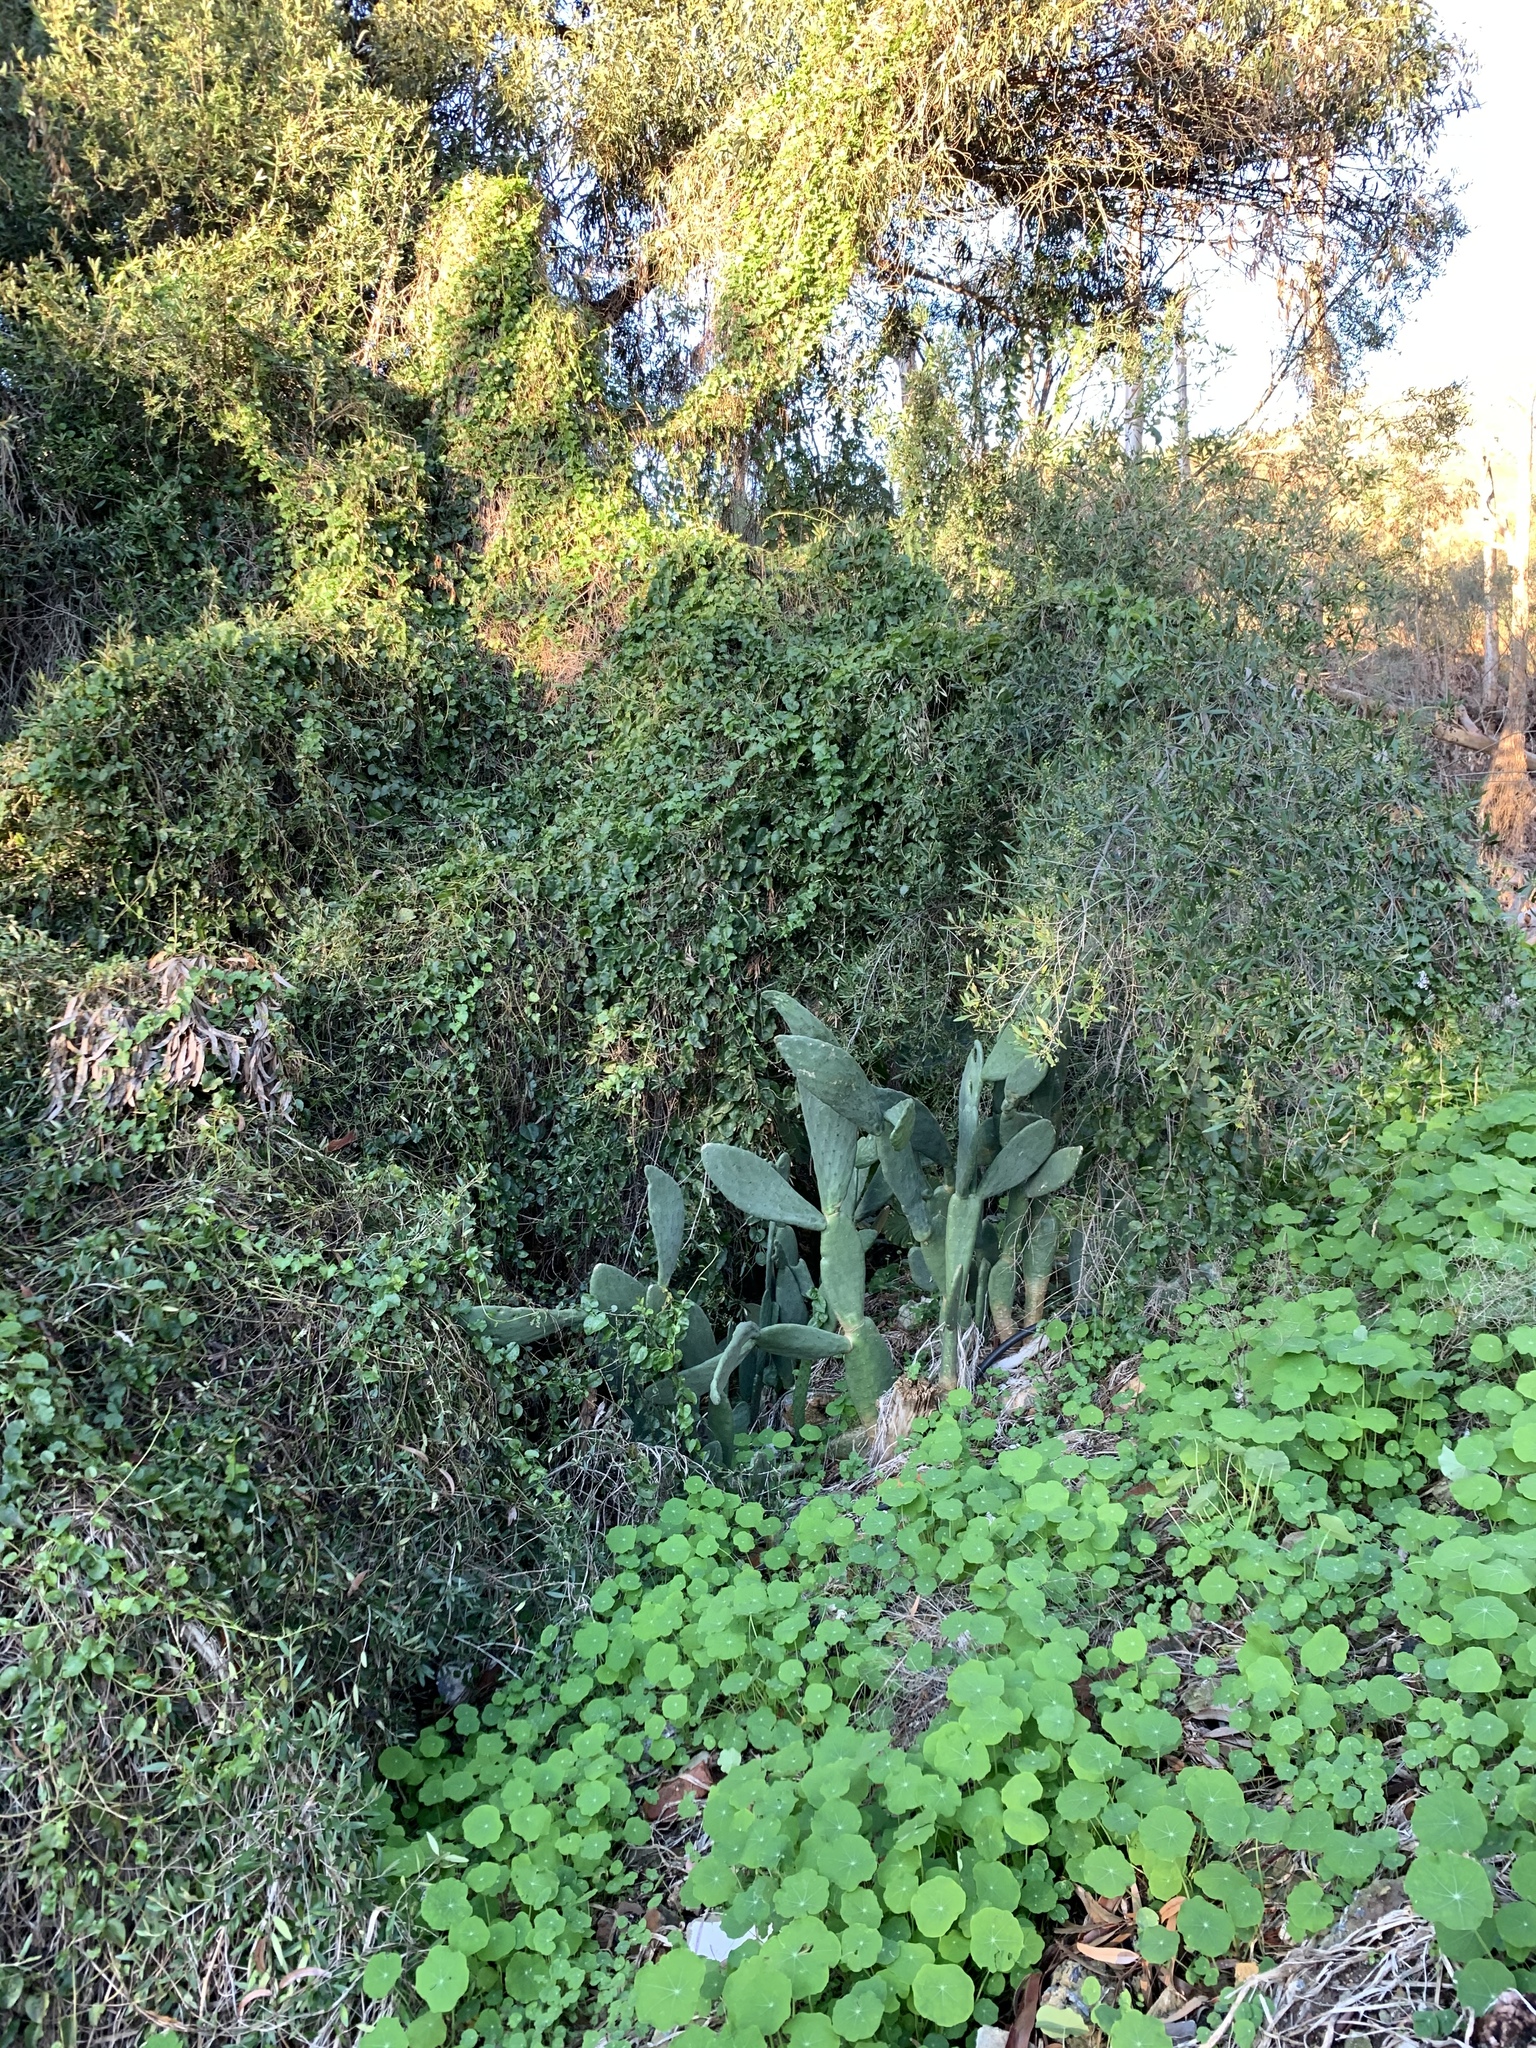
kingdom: Plantae
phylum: Tracheophyta
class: Magnoliopsida
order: Caryophyllales
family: Cactaceae
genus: Opuntia
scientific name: Opuntia ficus-indica
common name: Barbary fig
